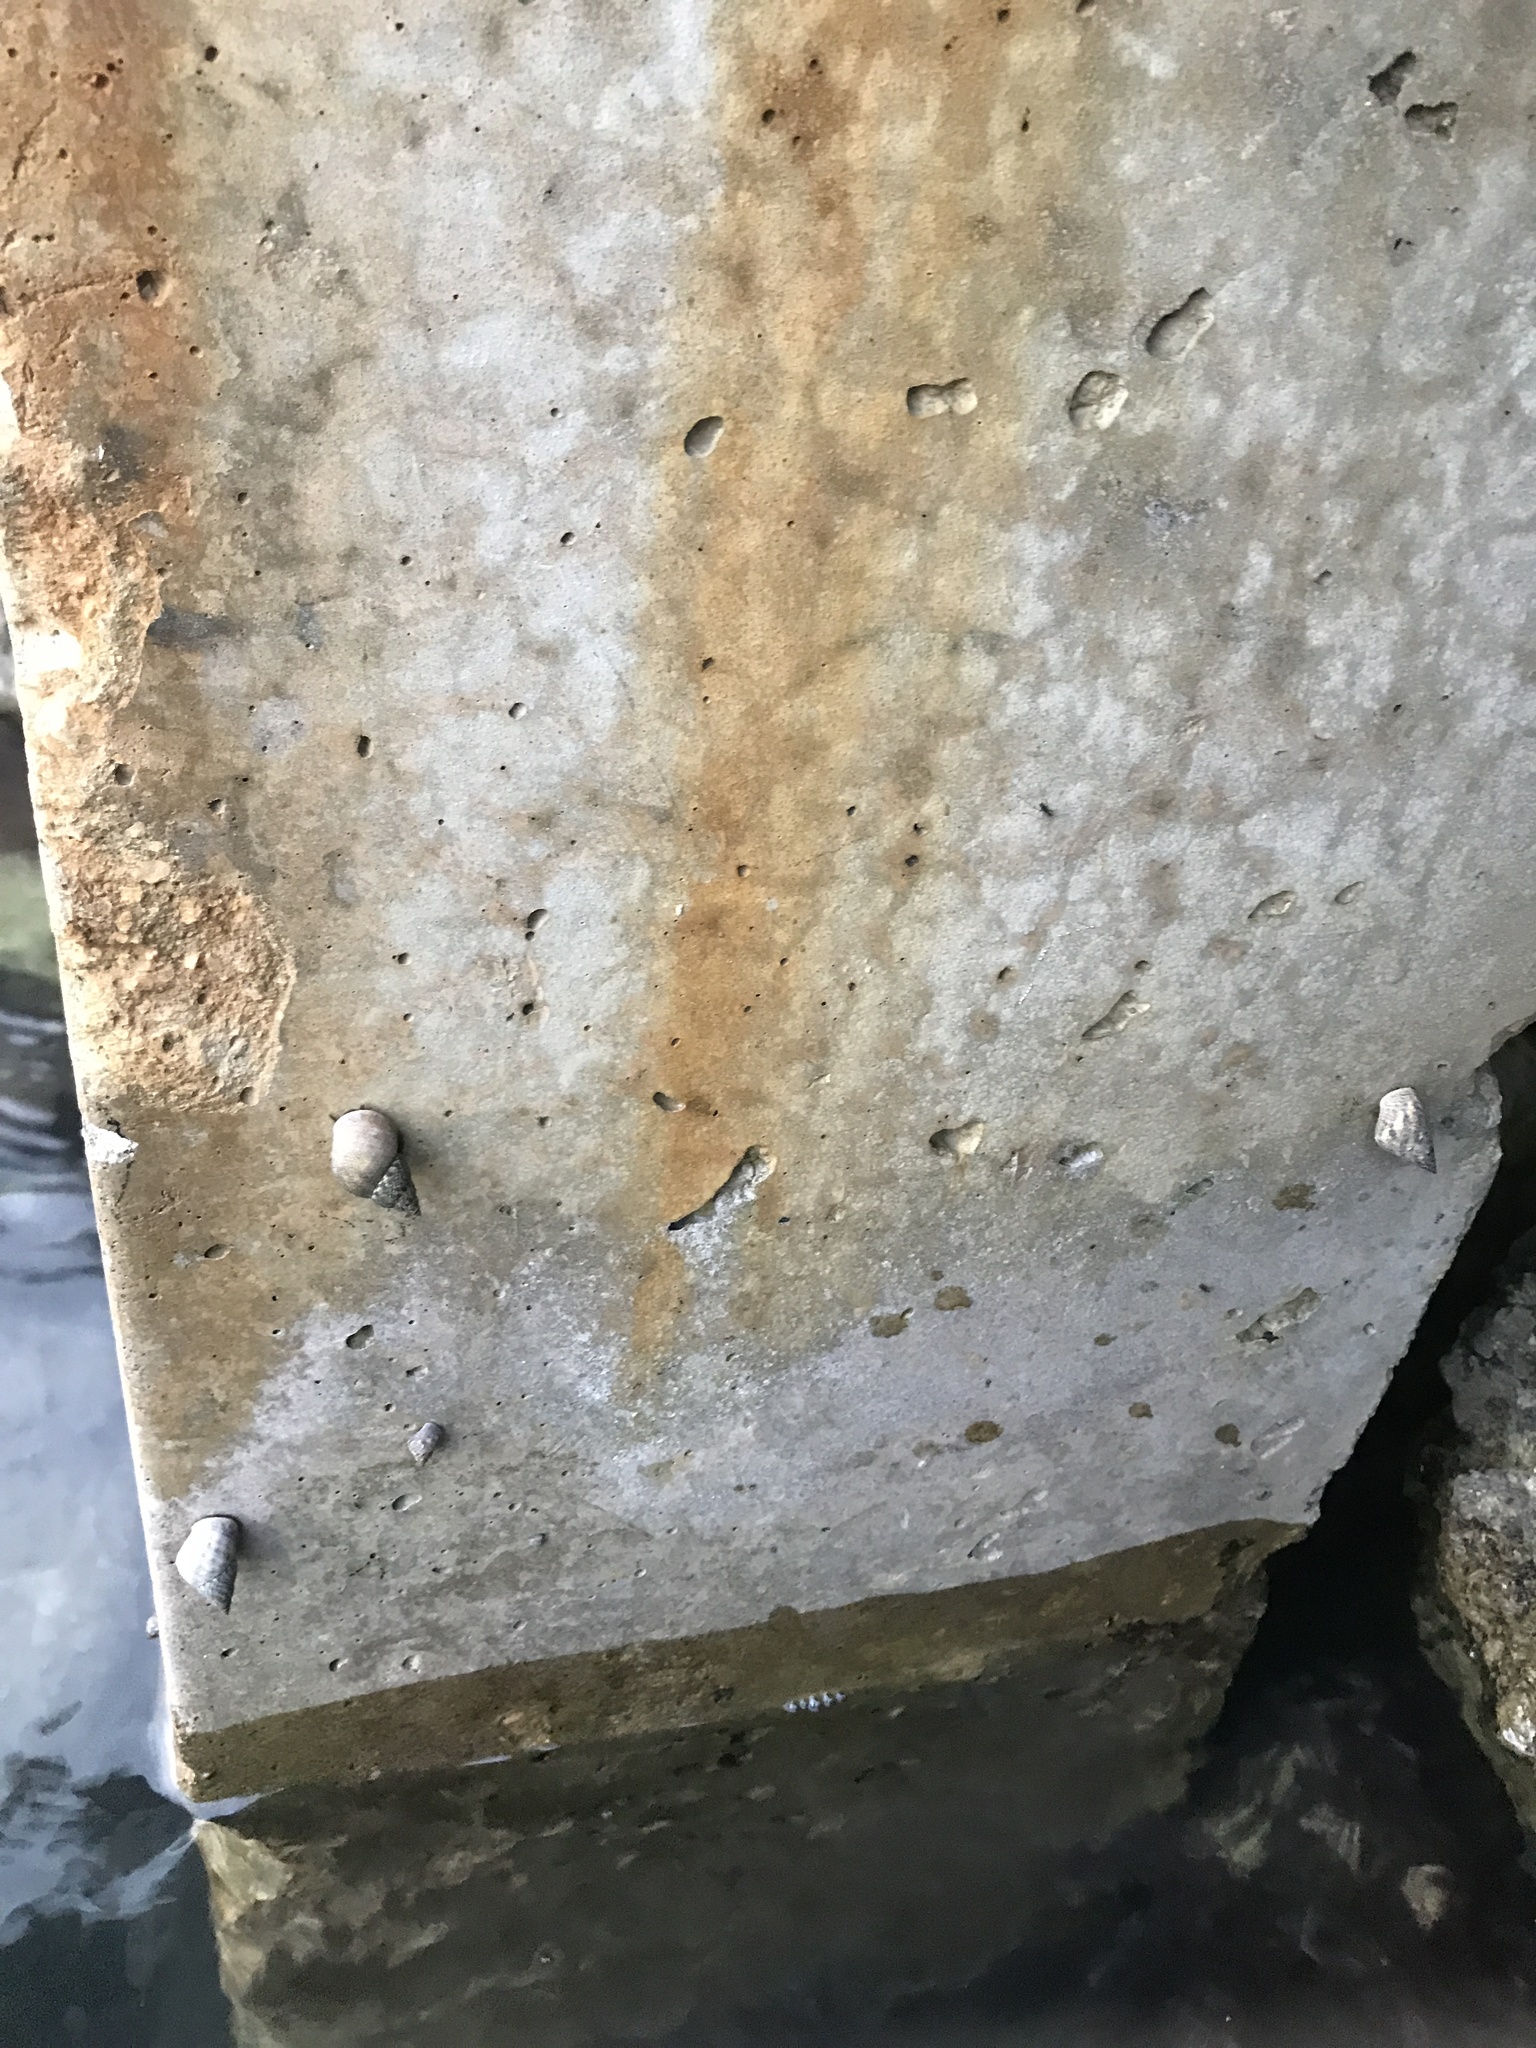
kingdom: Animalia
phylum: Mollusca
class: Gastropoda
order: Littorinimorpha
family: Littorinidae
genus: Littoraria
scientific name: Littoraria angulifera
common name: Mangrove periwinkle
